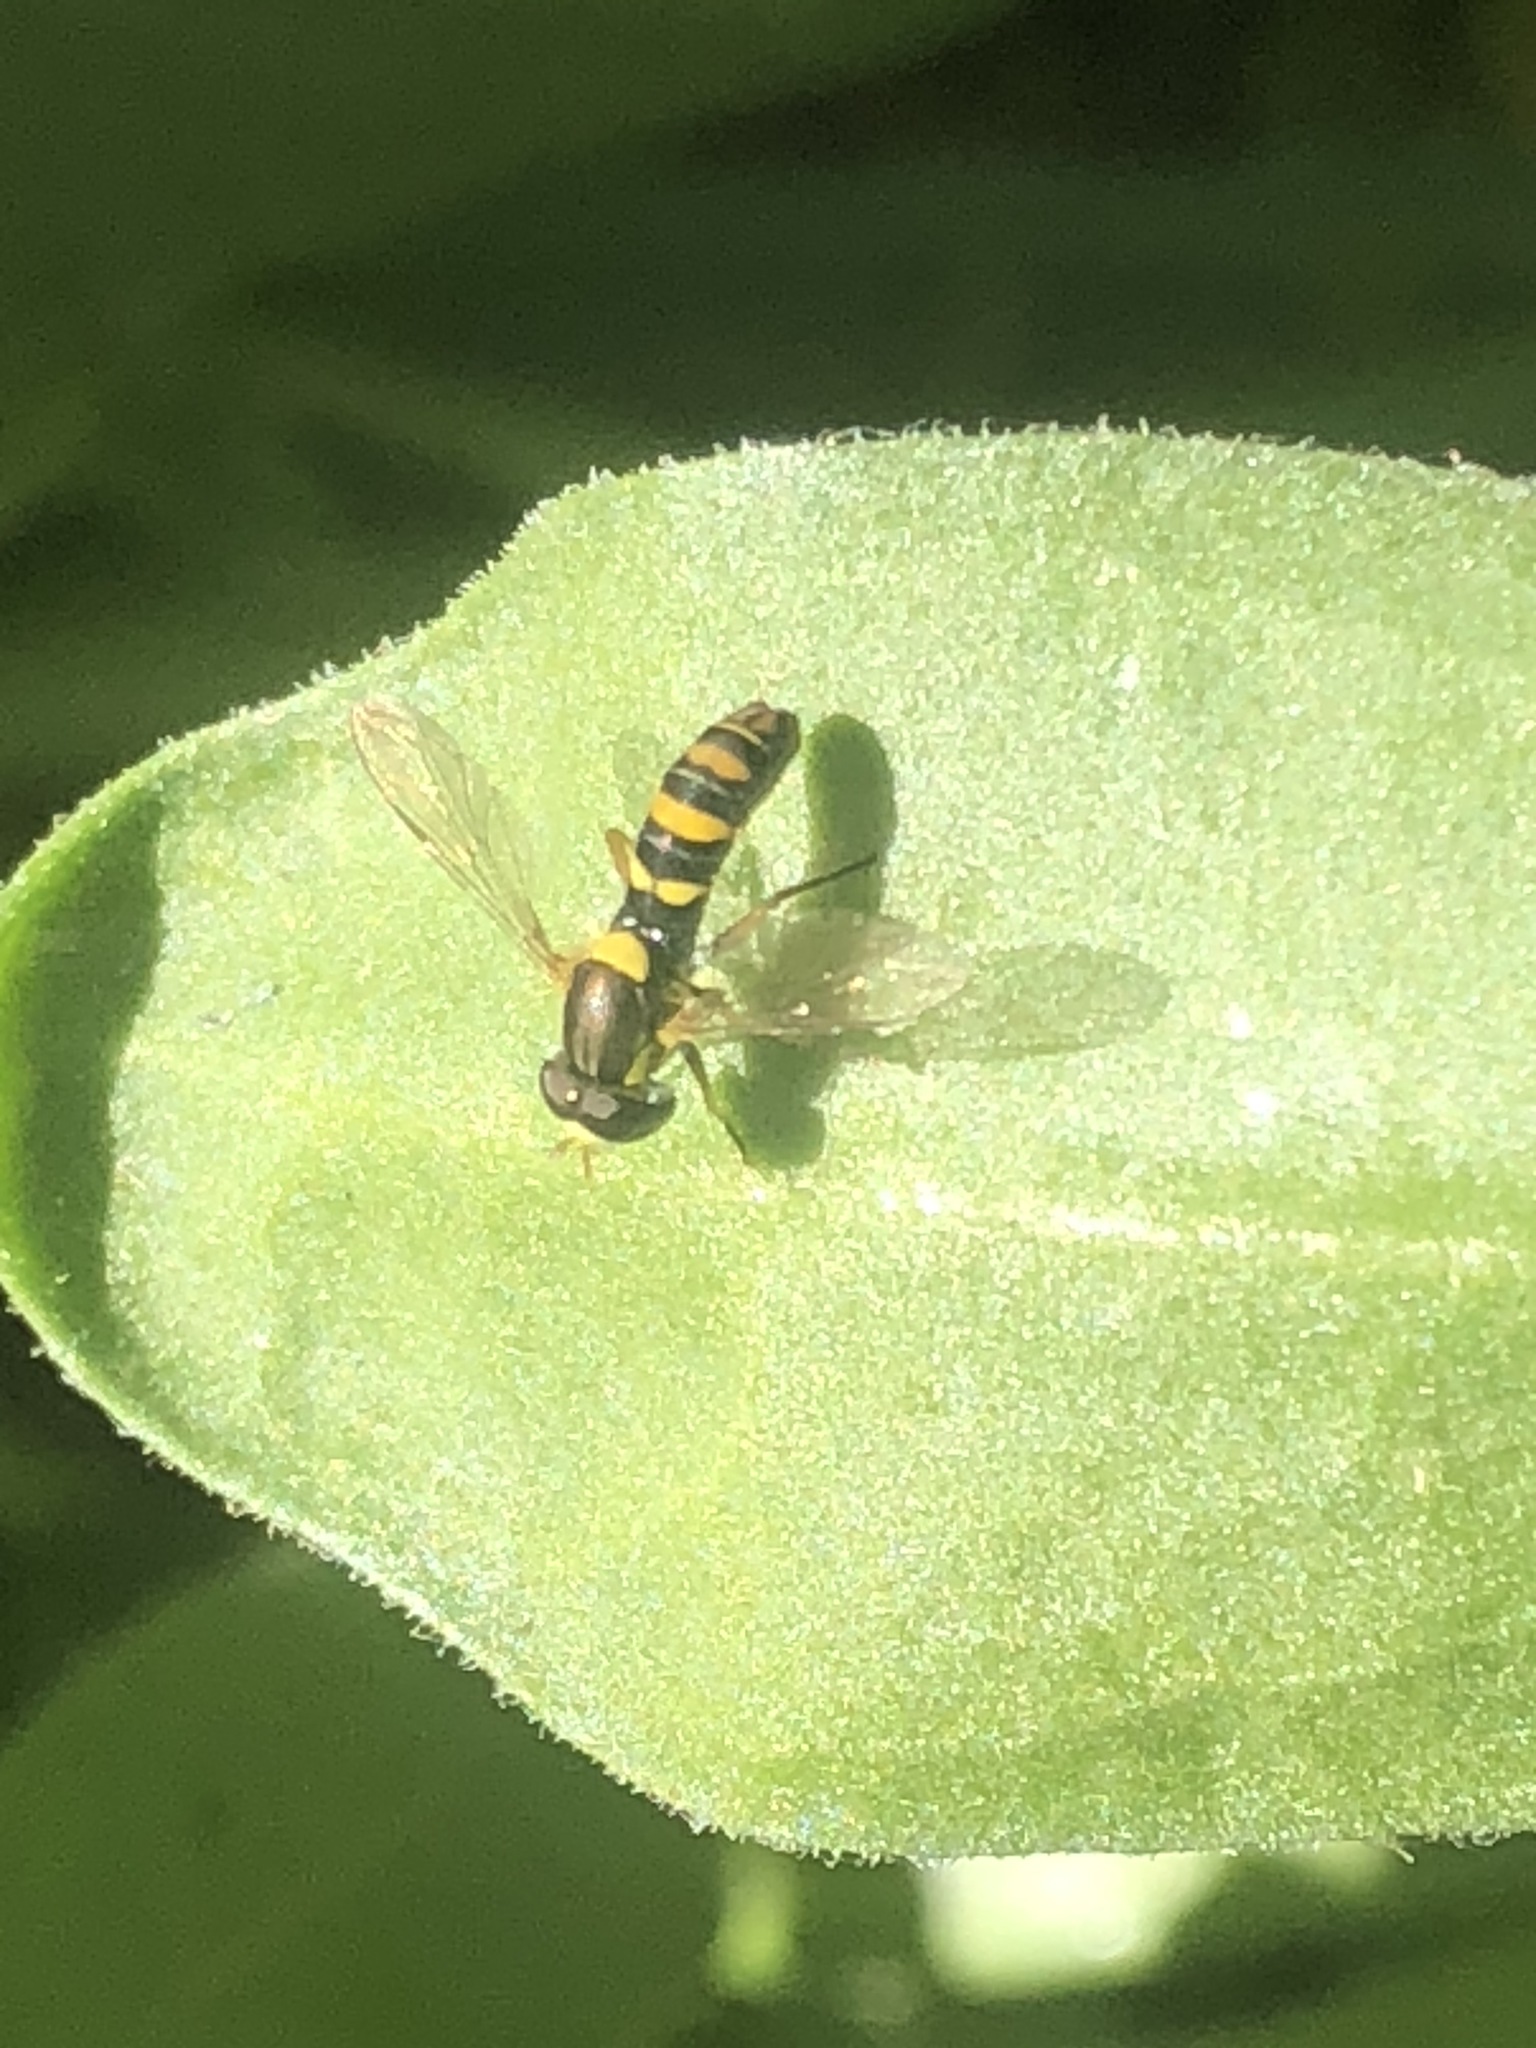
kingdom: Animalia
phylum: Arthropoda
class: Insecta
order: Diptera
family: Syrphidae
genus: Sphaerophoria
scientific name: Sphaerophoria
